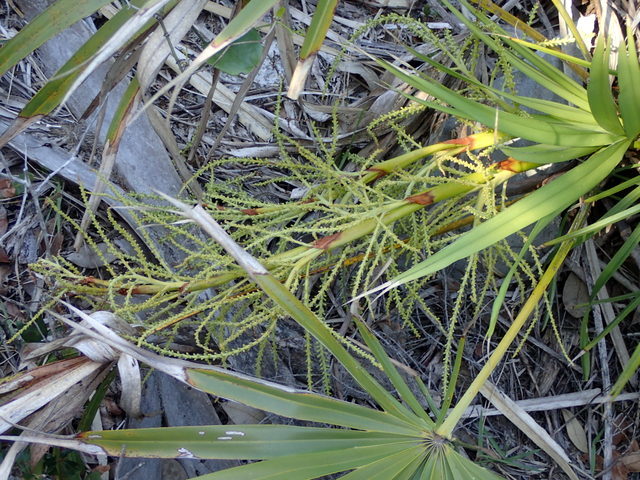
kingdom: Plantae
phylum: Tracheophyta
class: Liliopsida
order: Arecales
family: Arecaceae
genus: Serenoa
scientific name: Serenoa repens
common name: Saw-palmetto
